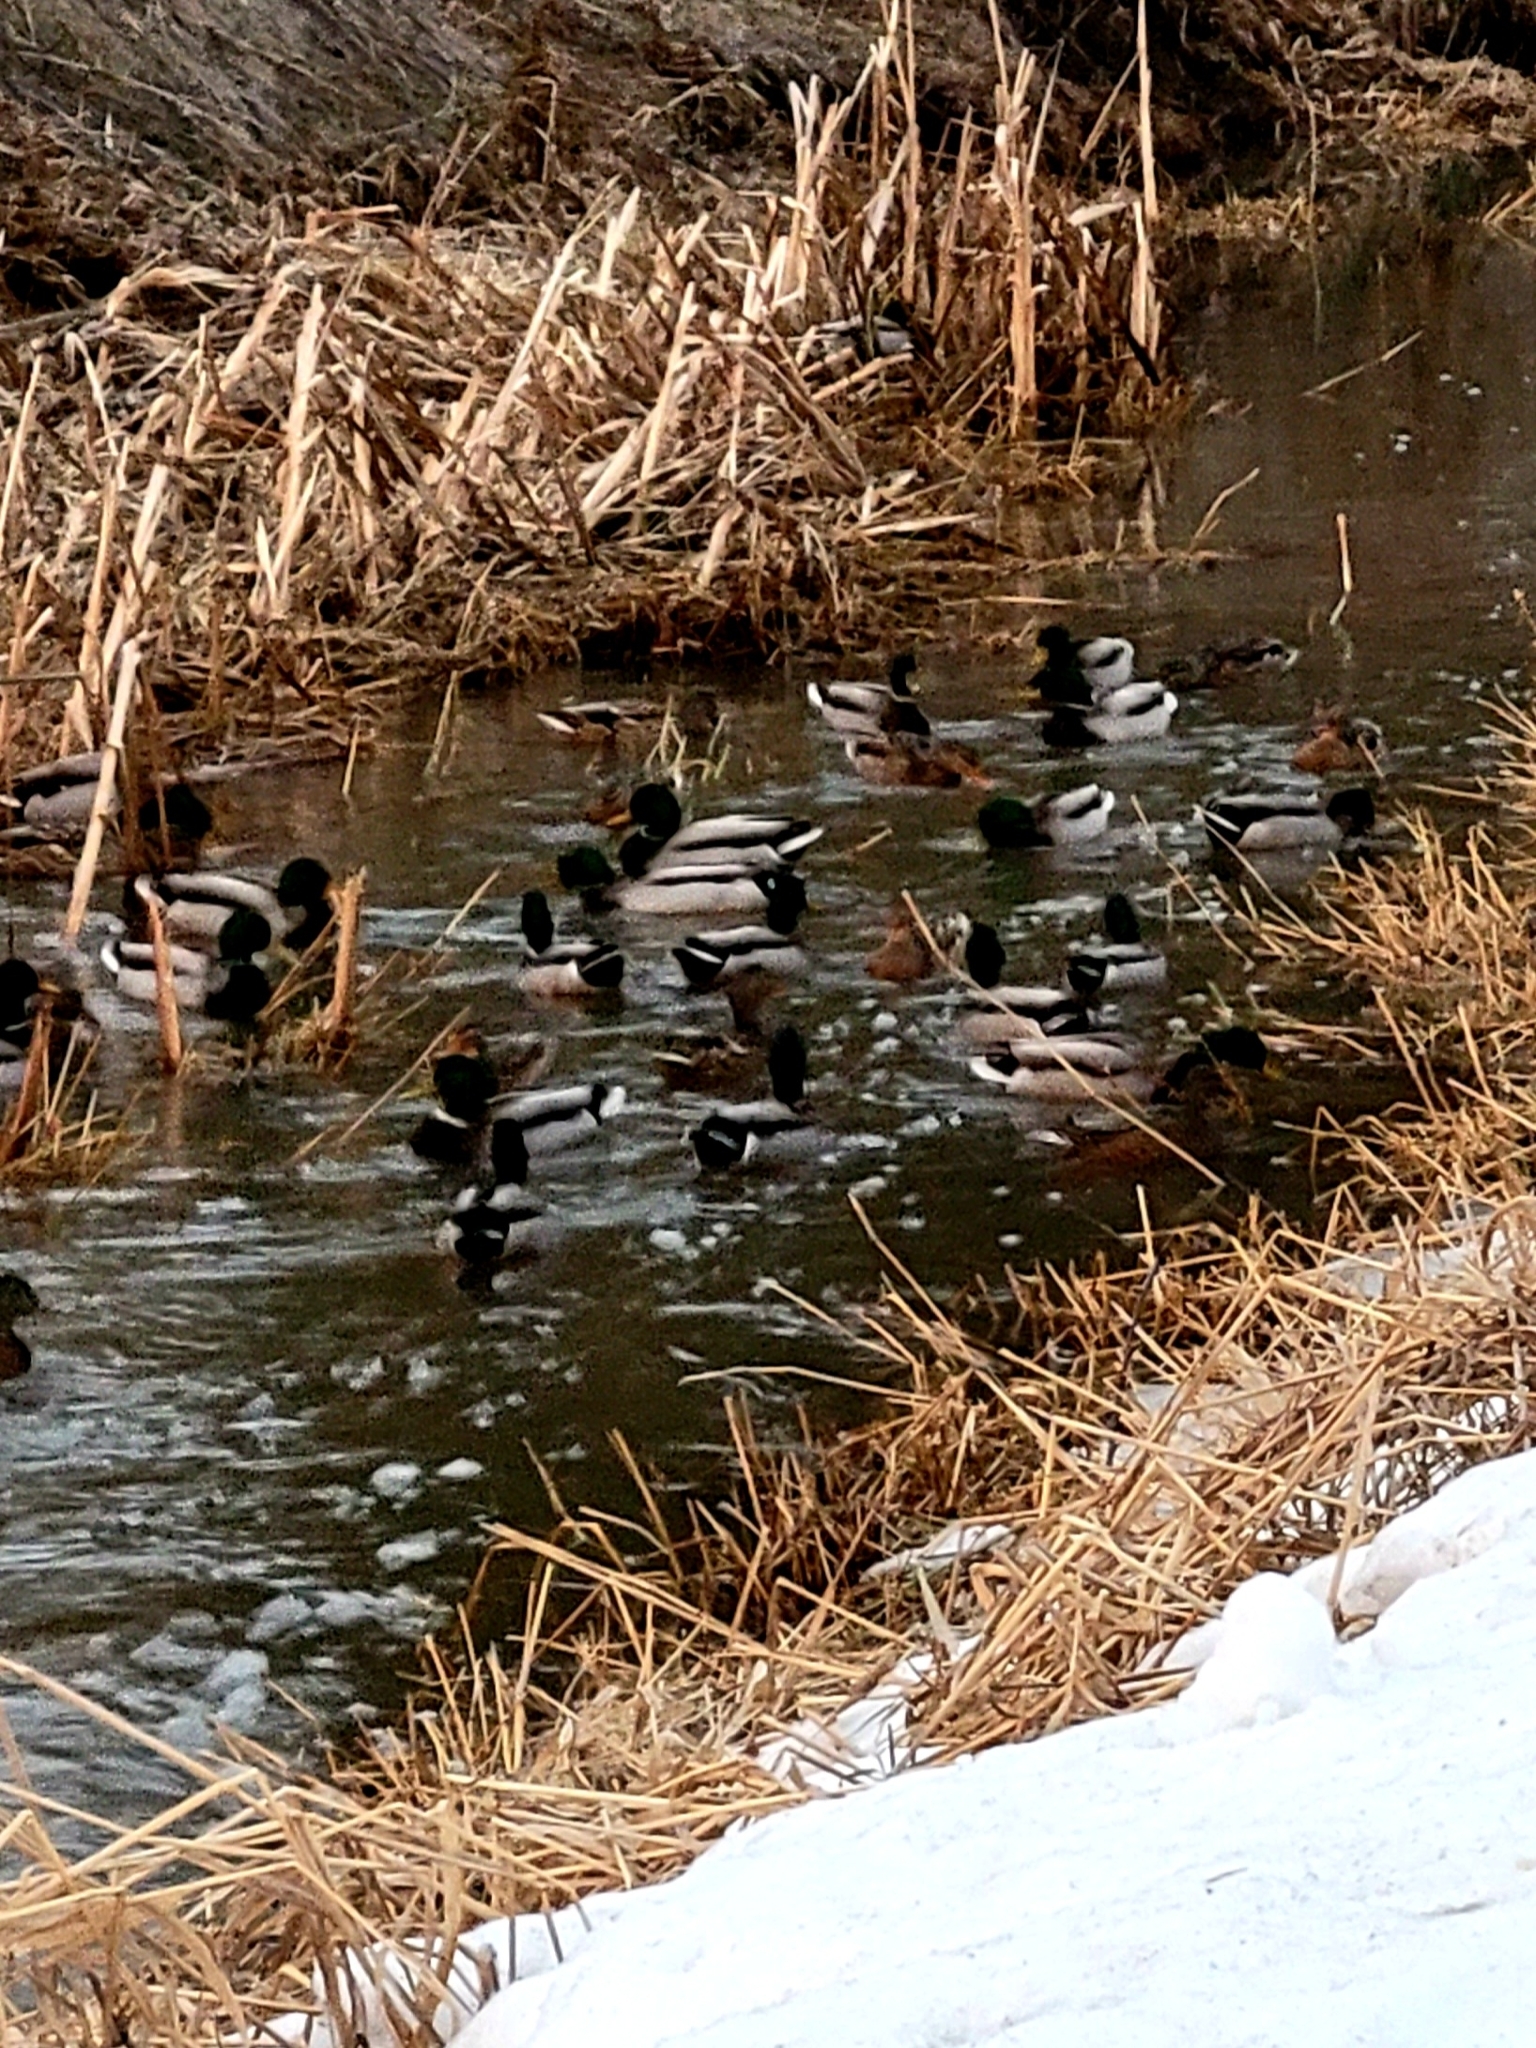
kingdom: Animalia
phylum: Chordata
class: Aves
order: Anseriformes
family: Anatidae
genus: Anas
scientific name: Anas platyrhynchos
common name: Mallard
